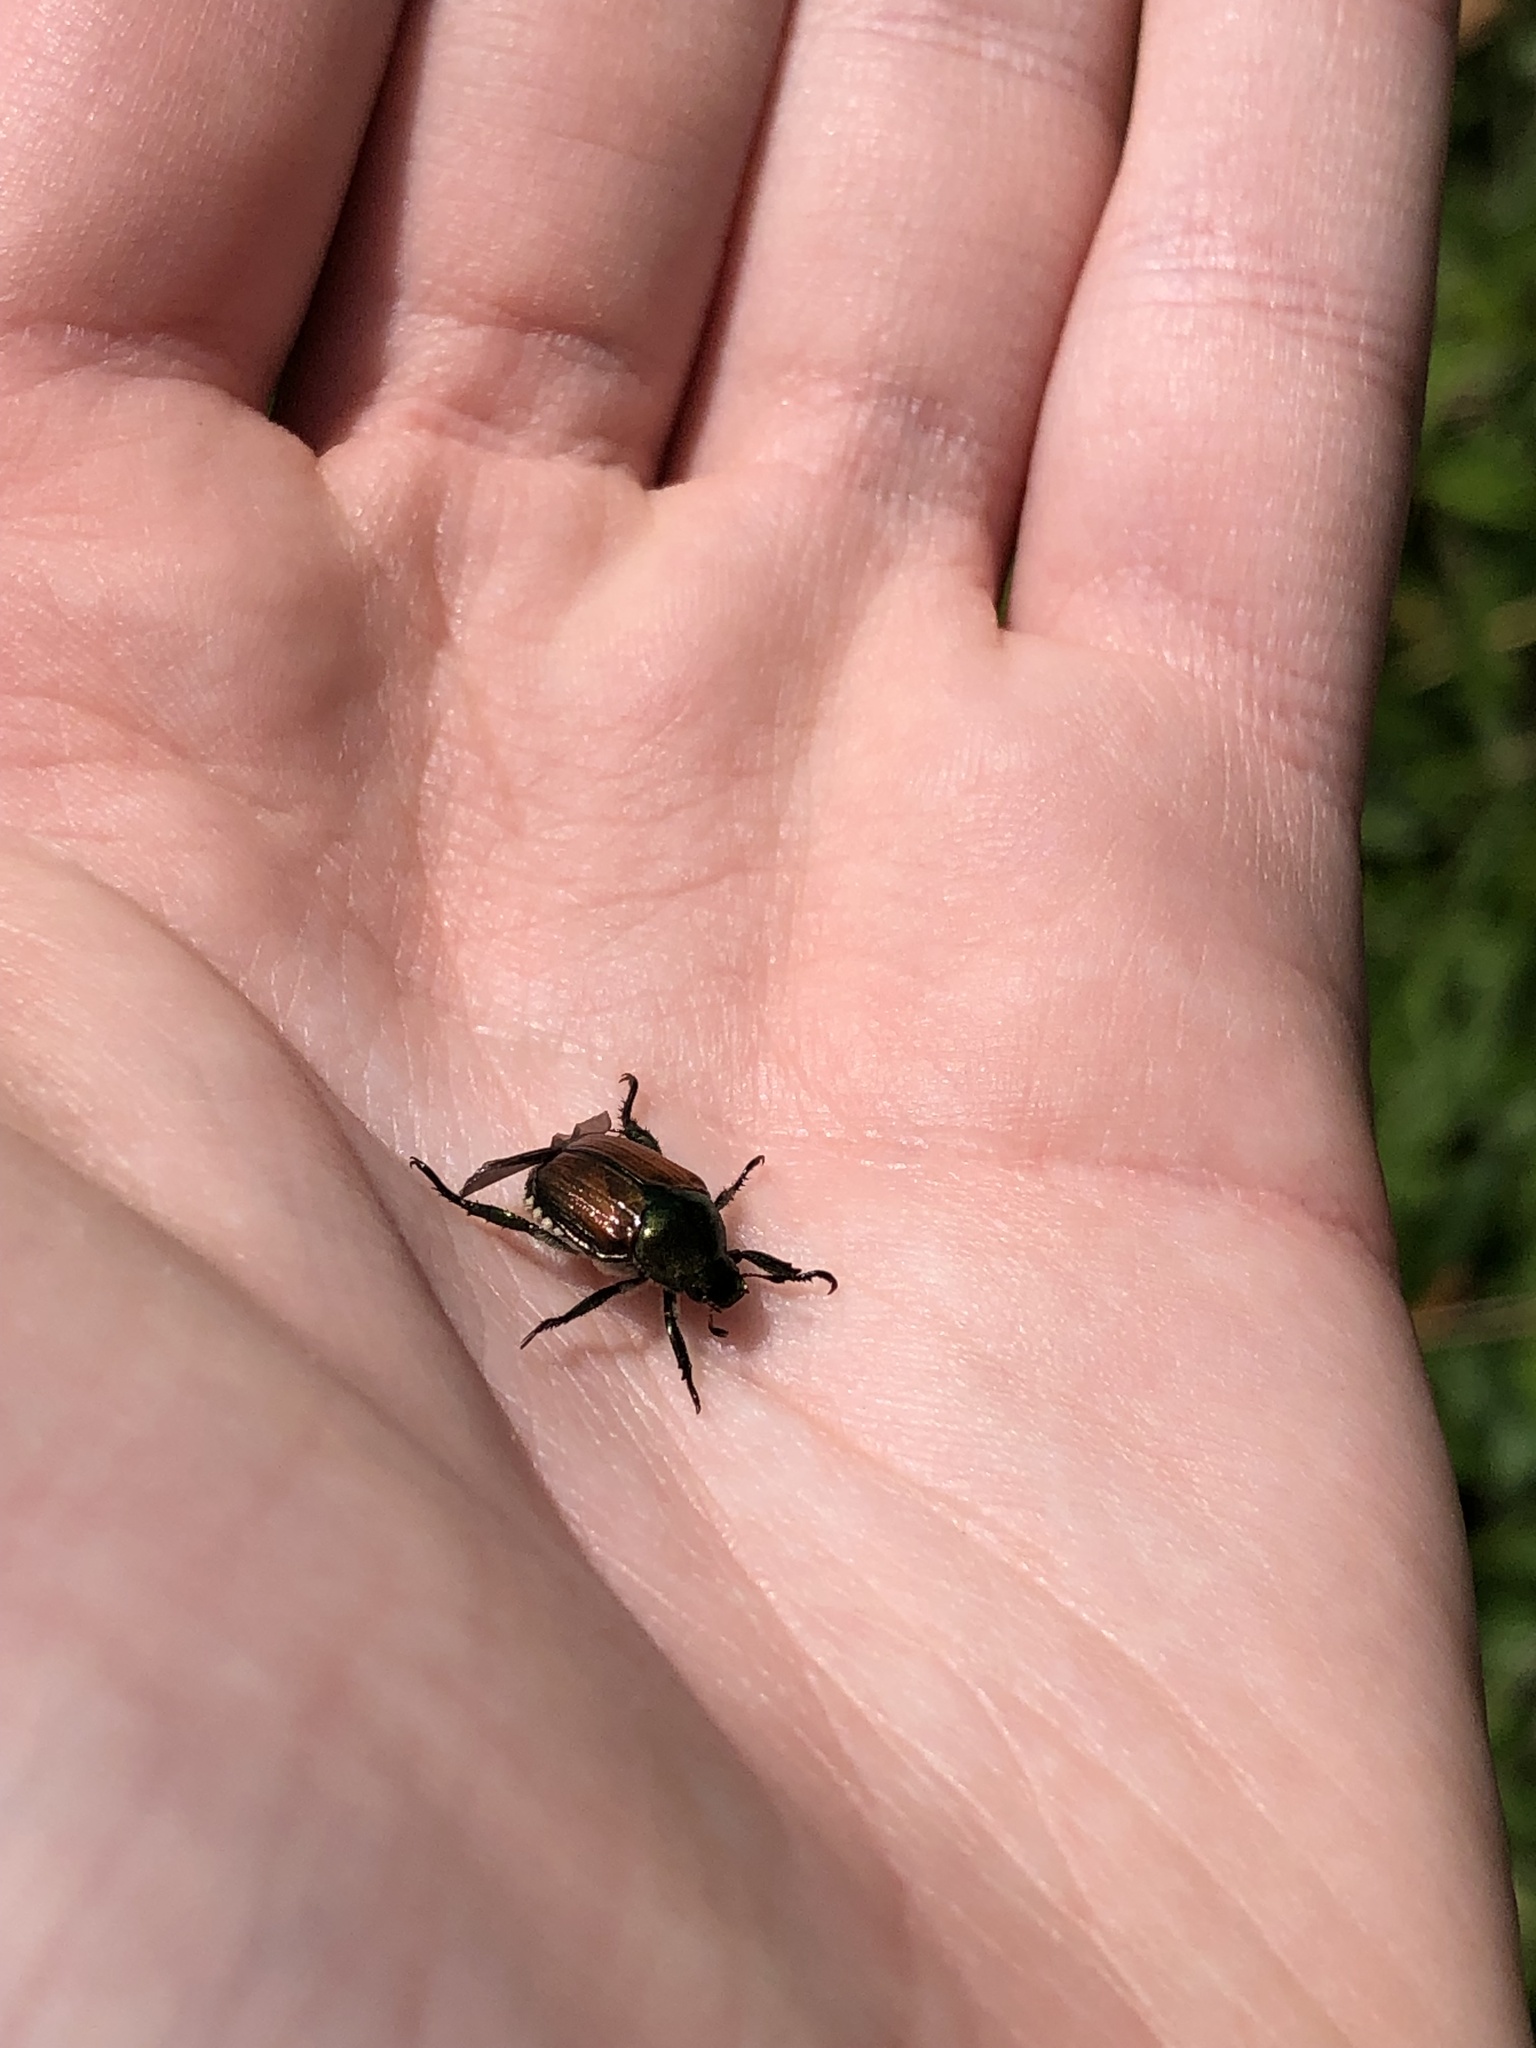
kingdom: Animalia
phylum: Arthropoda
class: Insecta
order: Coleoptera
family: Scarabaeidae
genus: Popillia
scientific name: Popillia japonica
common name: Japanese beetle
